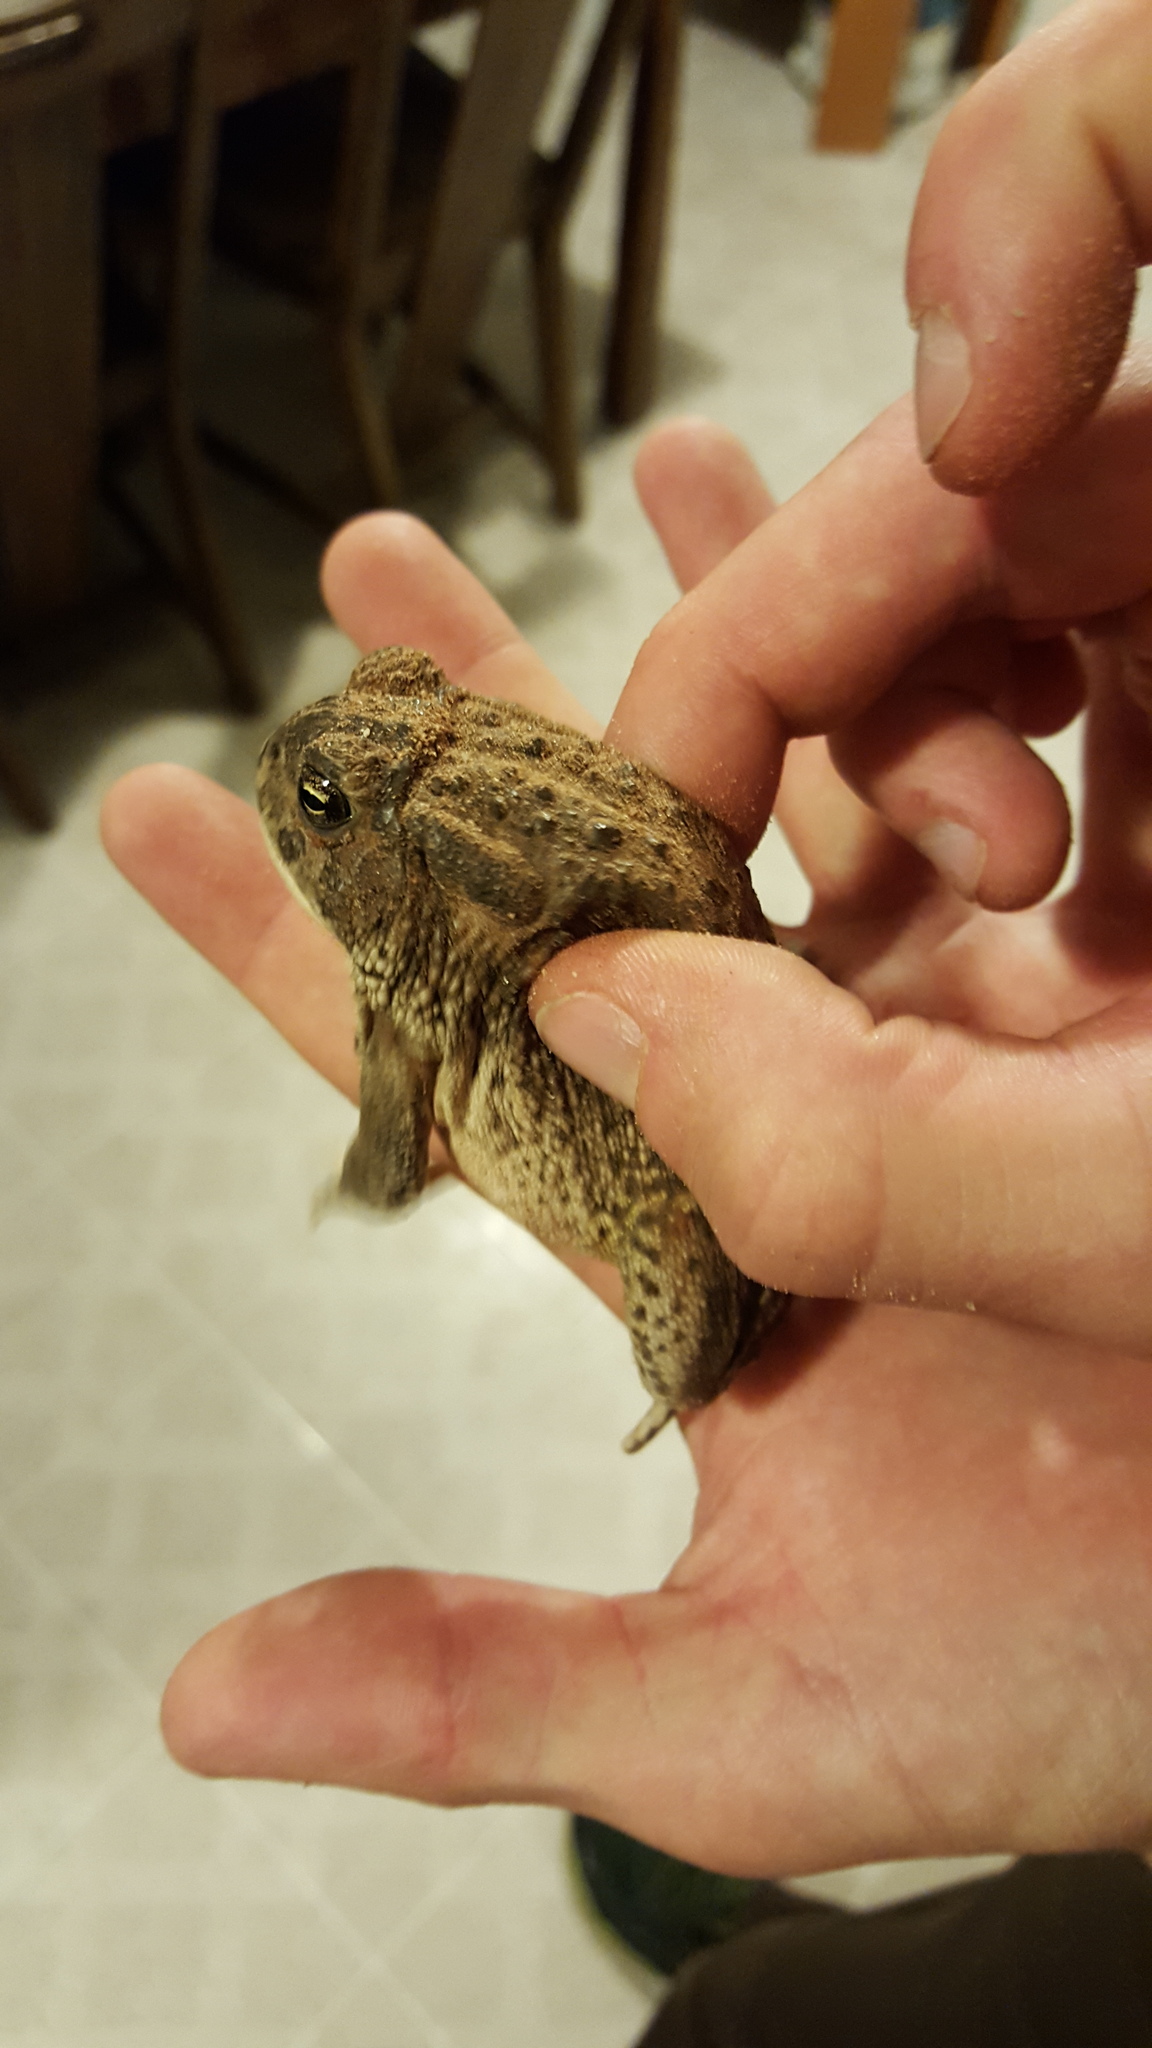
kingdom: Animalia
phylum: Chordata
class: Amphibia
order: Anura
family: Bufonidae
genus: Anaxyrus
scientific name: Anaxyrus woodhousii
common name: Woodhouse's toad
